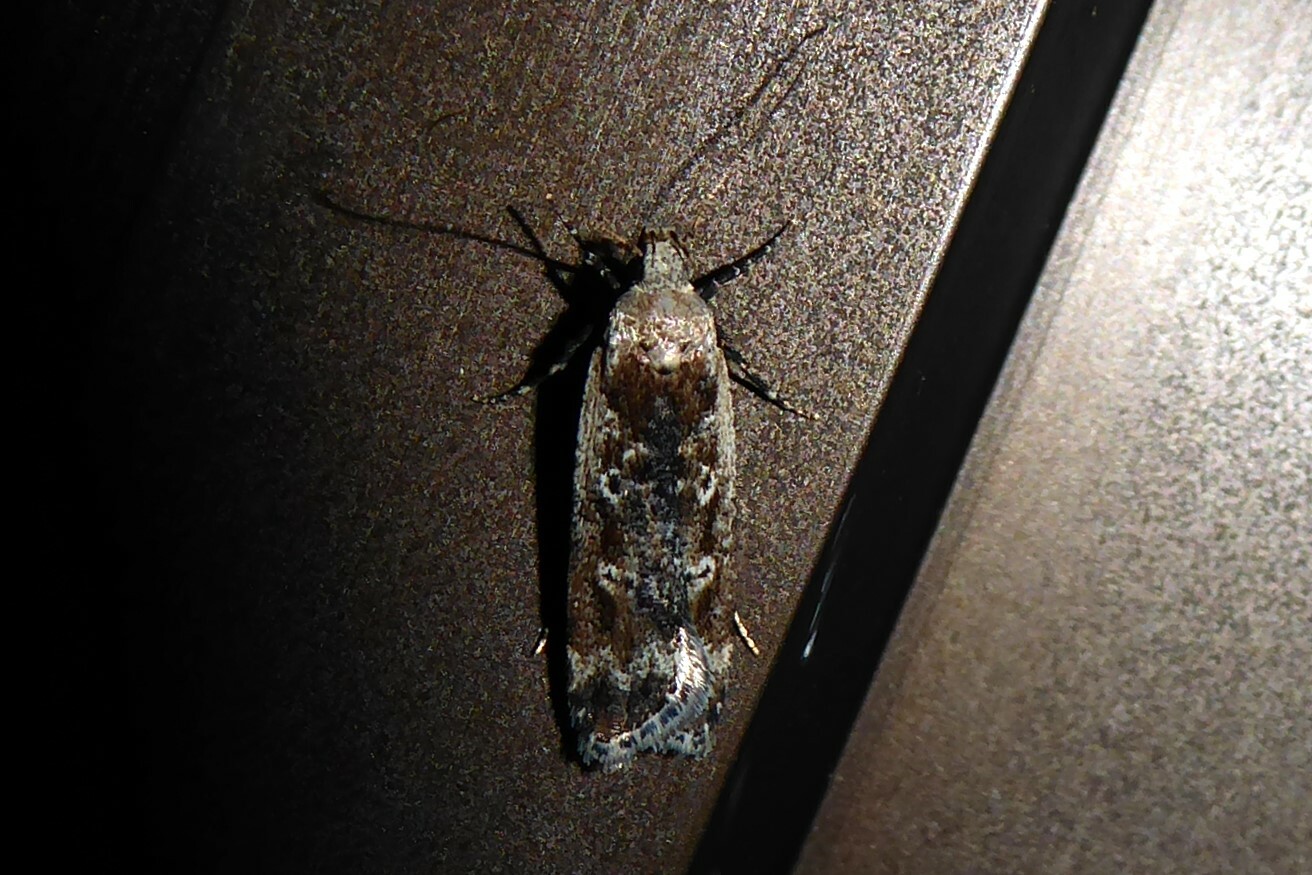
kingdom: Animalia
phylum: Arthropoda
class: Insecta
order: Lepidoptera
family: Gelechiidae
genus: Anisoplaca
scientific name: Anisoplaca achyrota
